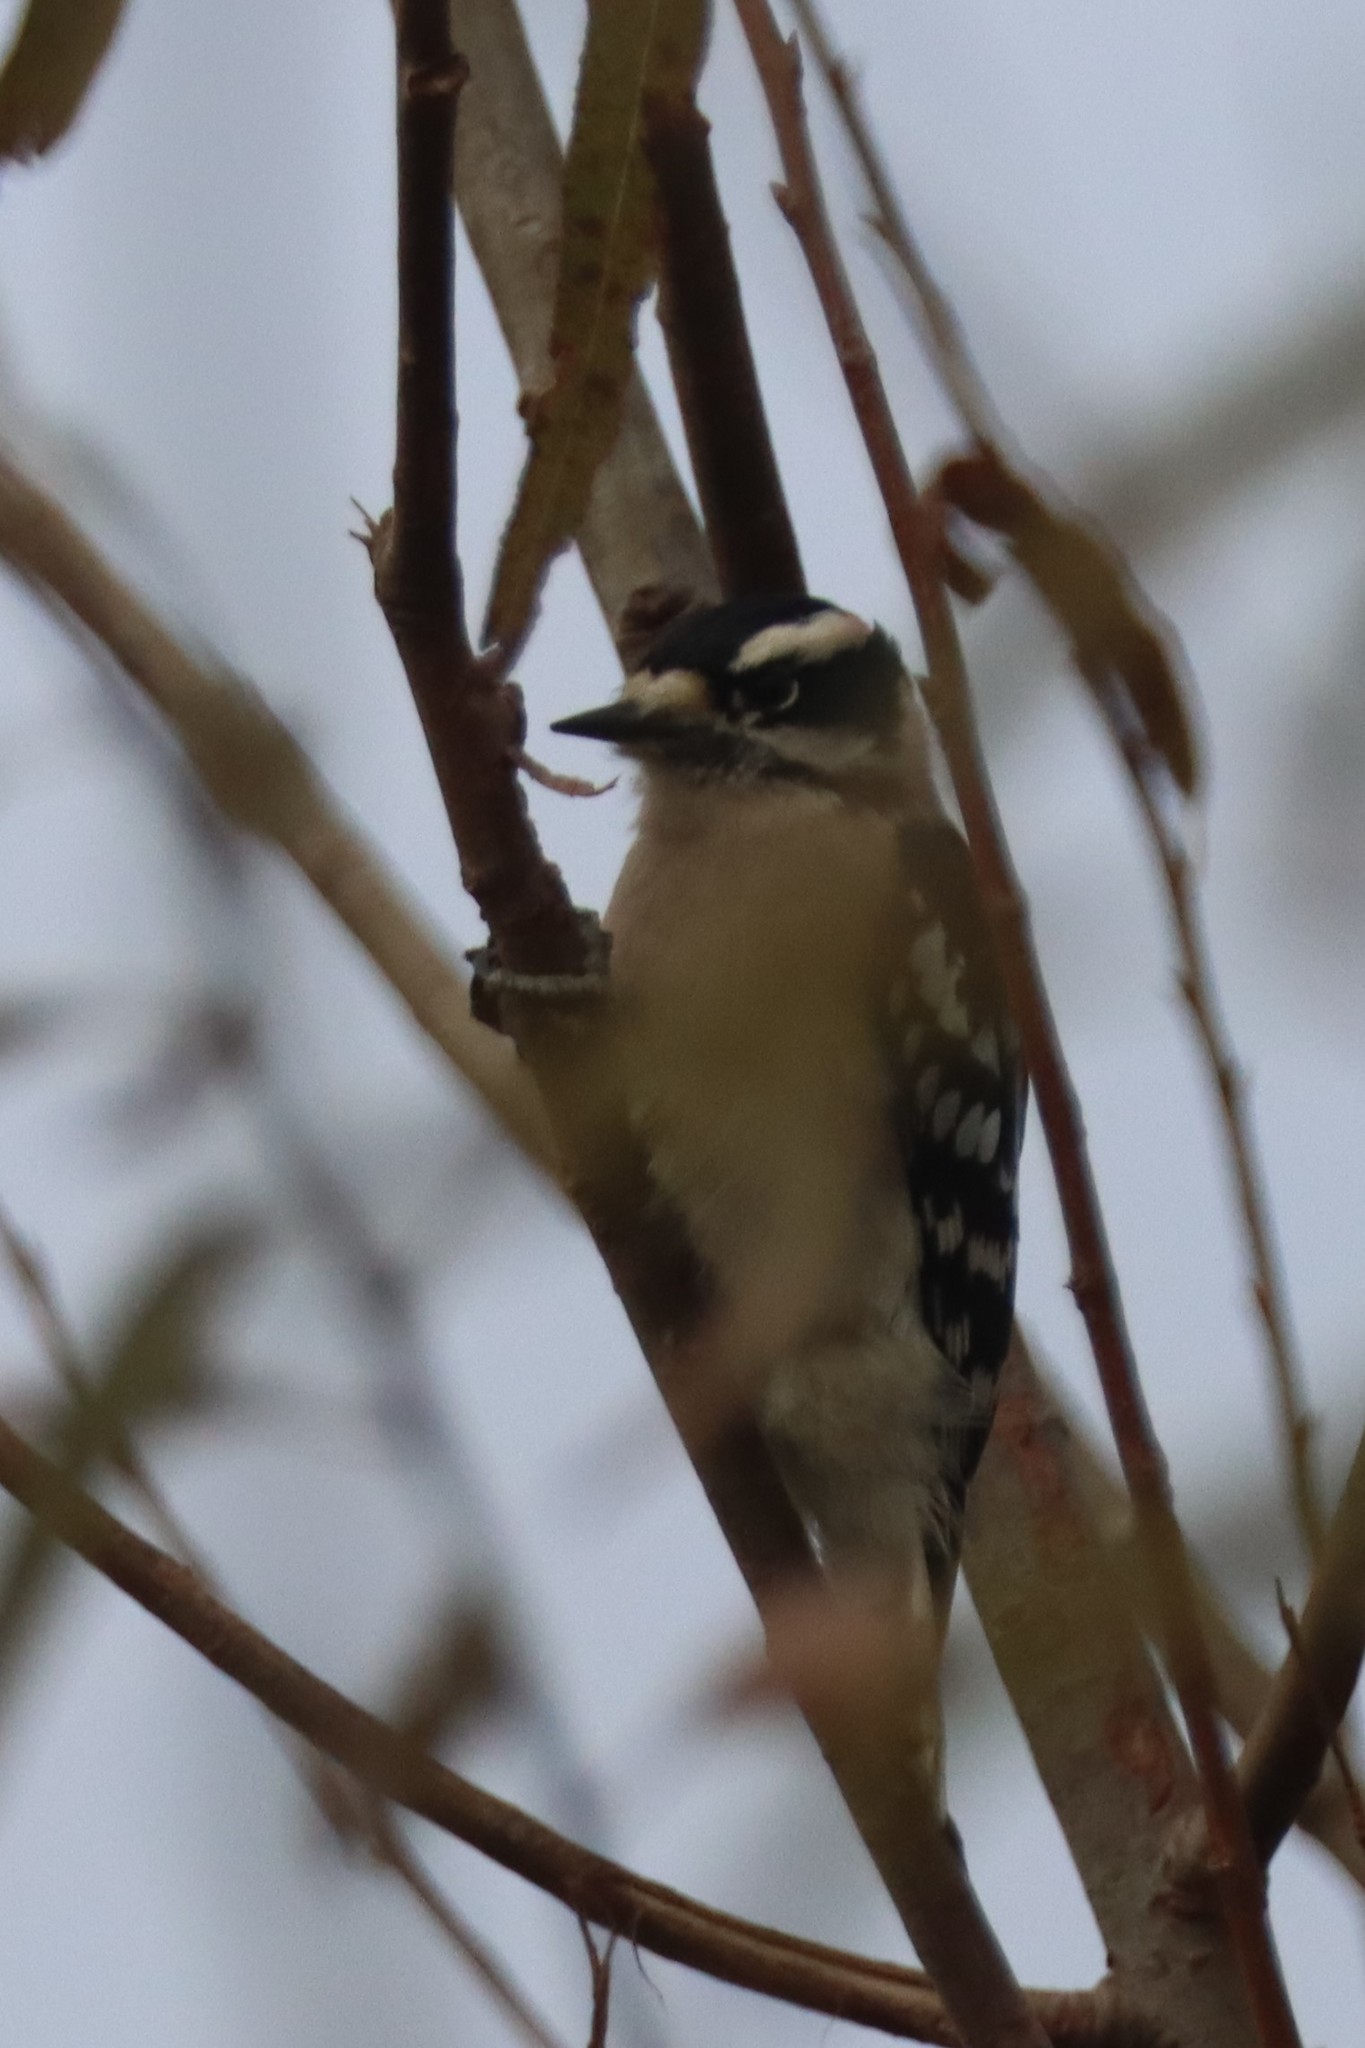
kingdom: Animalia
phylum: Chordata
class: Aves
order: Piciformes
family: Picidae
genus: Dryobates
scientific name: Dryobates pubescens
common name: Downy woodpecker
